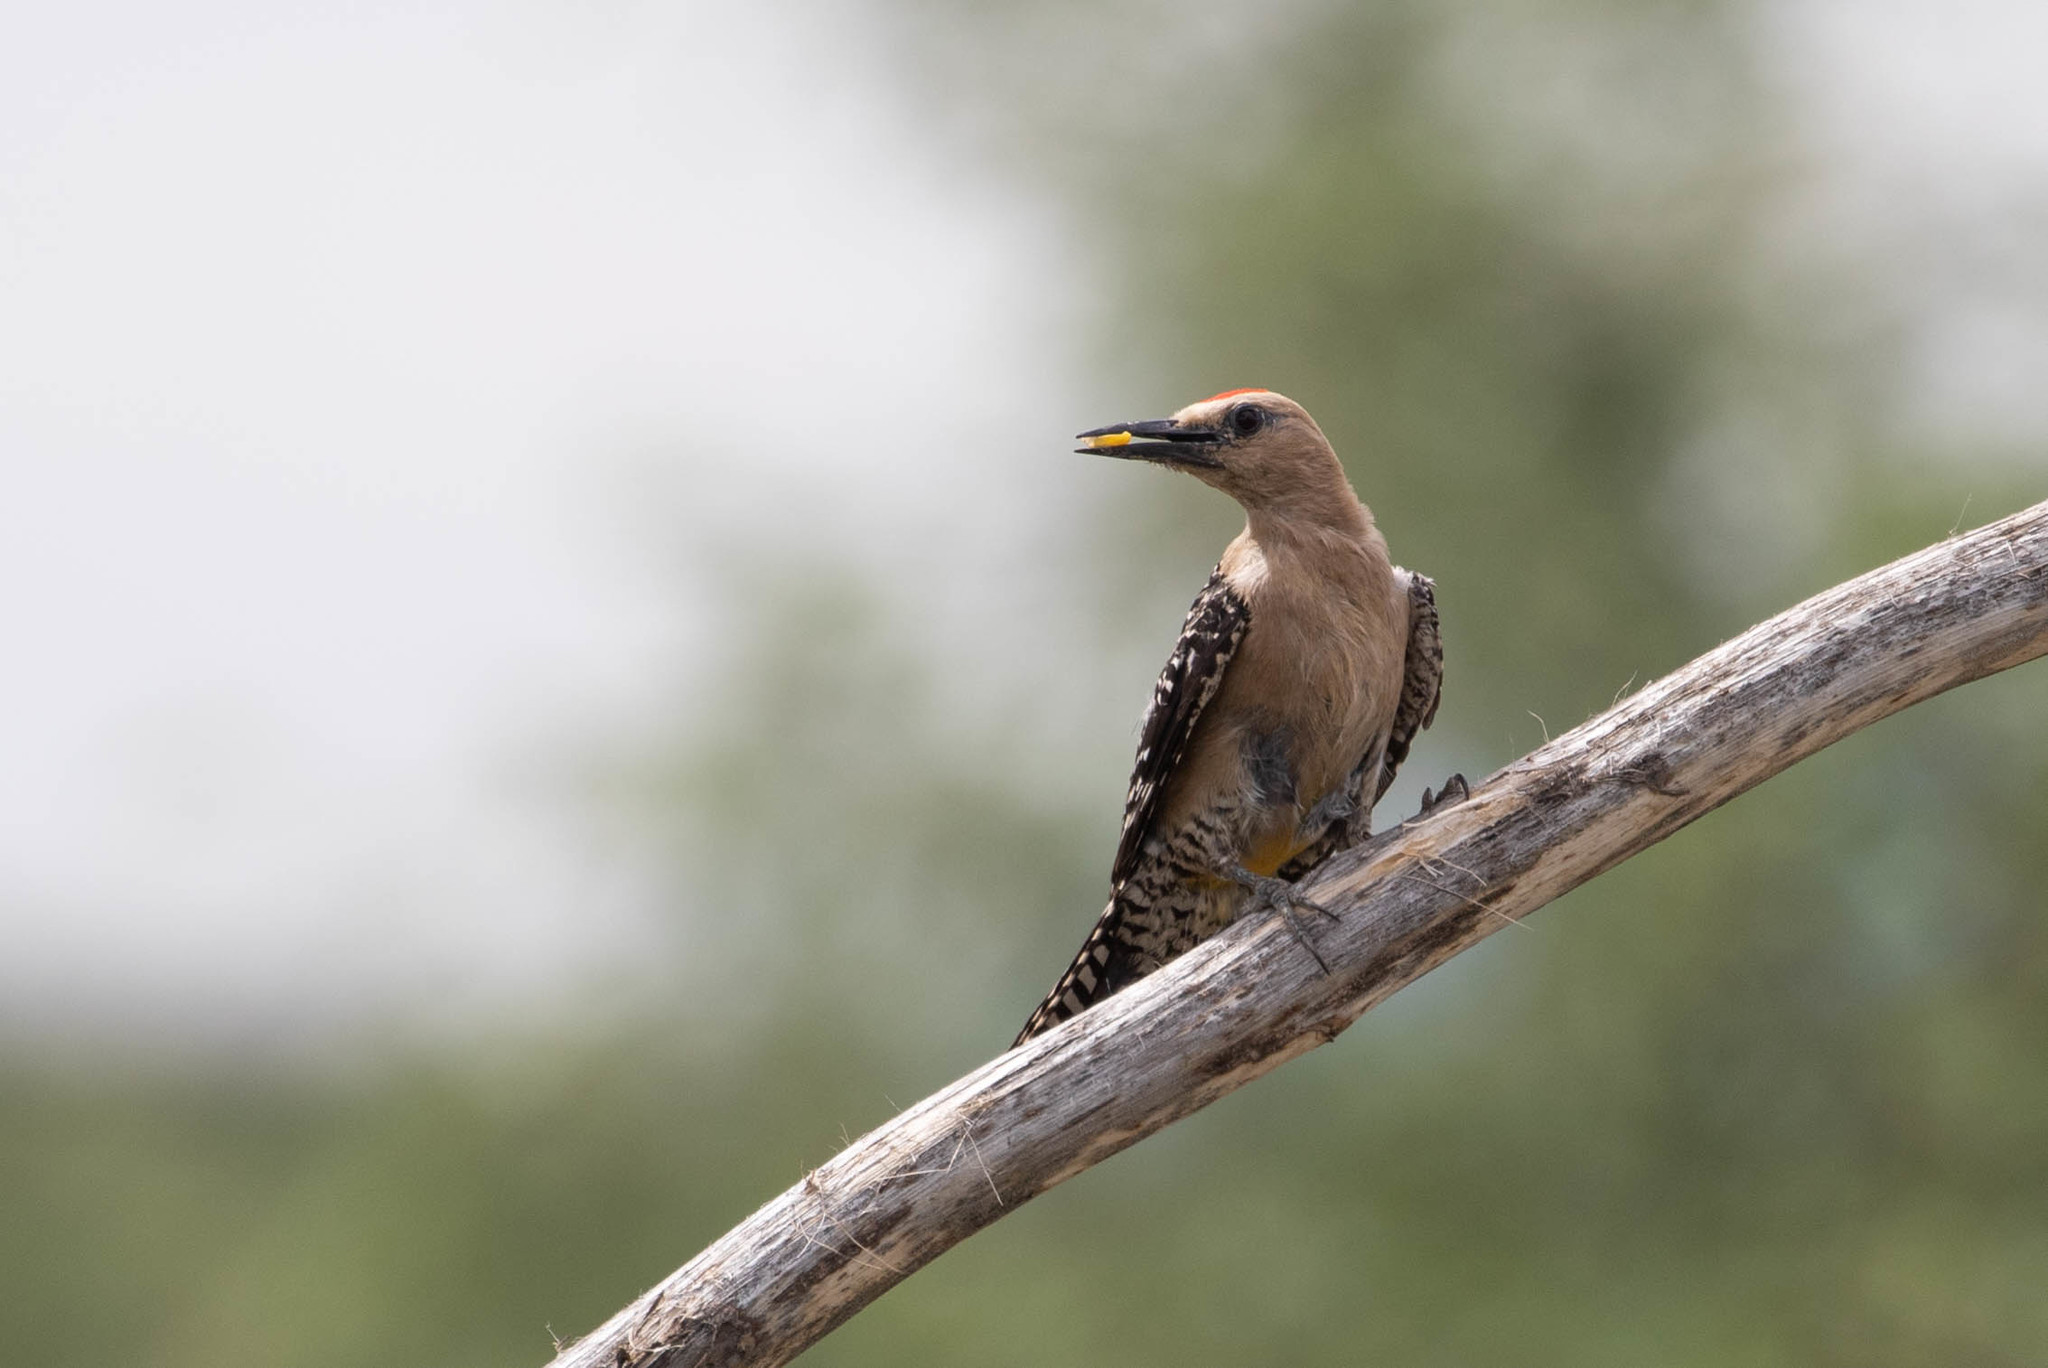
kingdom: Animalia
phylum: Chordata
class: Aves
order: Piciformes
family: Picidae
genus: Melanerpes
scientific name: Melanerpes uropygialis
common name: Gila woodpecker
